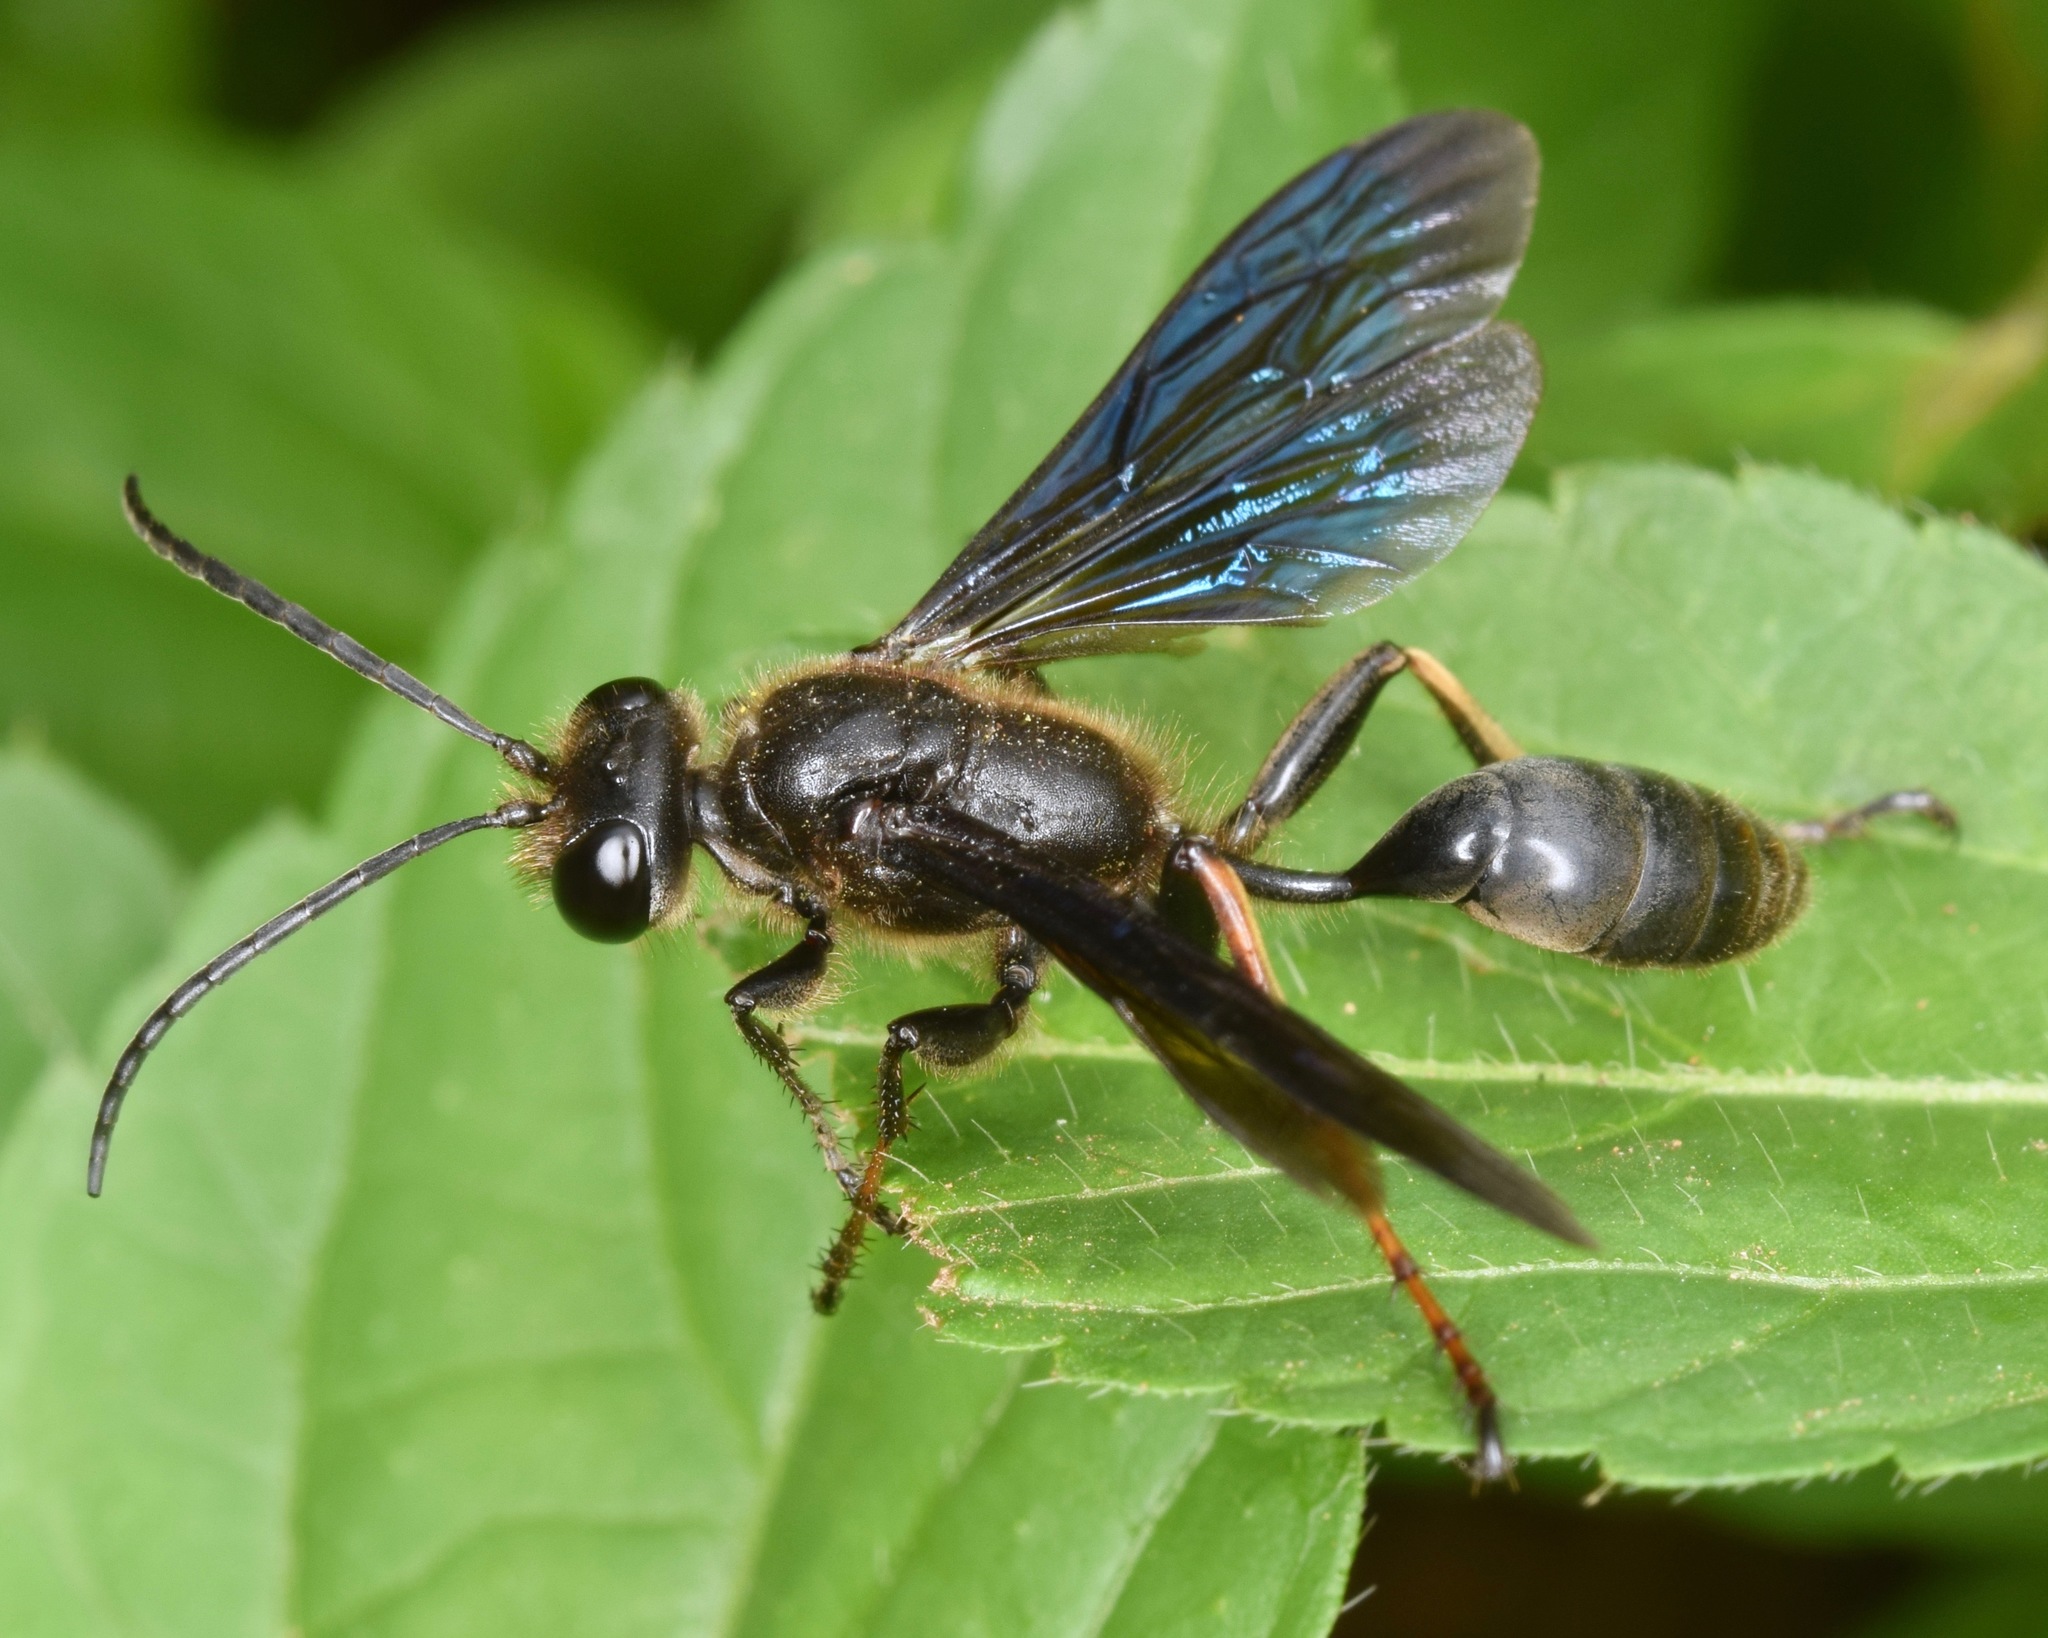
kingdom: Animalia
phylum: Arthropoda
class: Insecta
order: Hymenoptera
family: Sphecidae
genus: Isodontia
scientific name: Isodontia auripes
